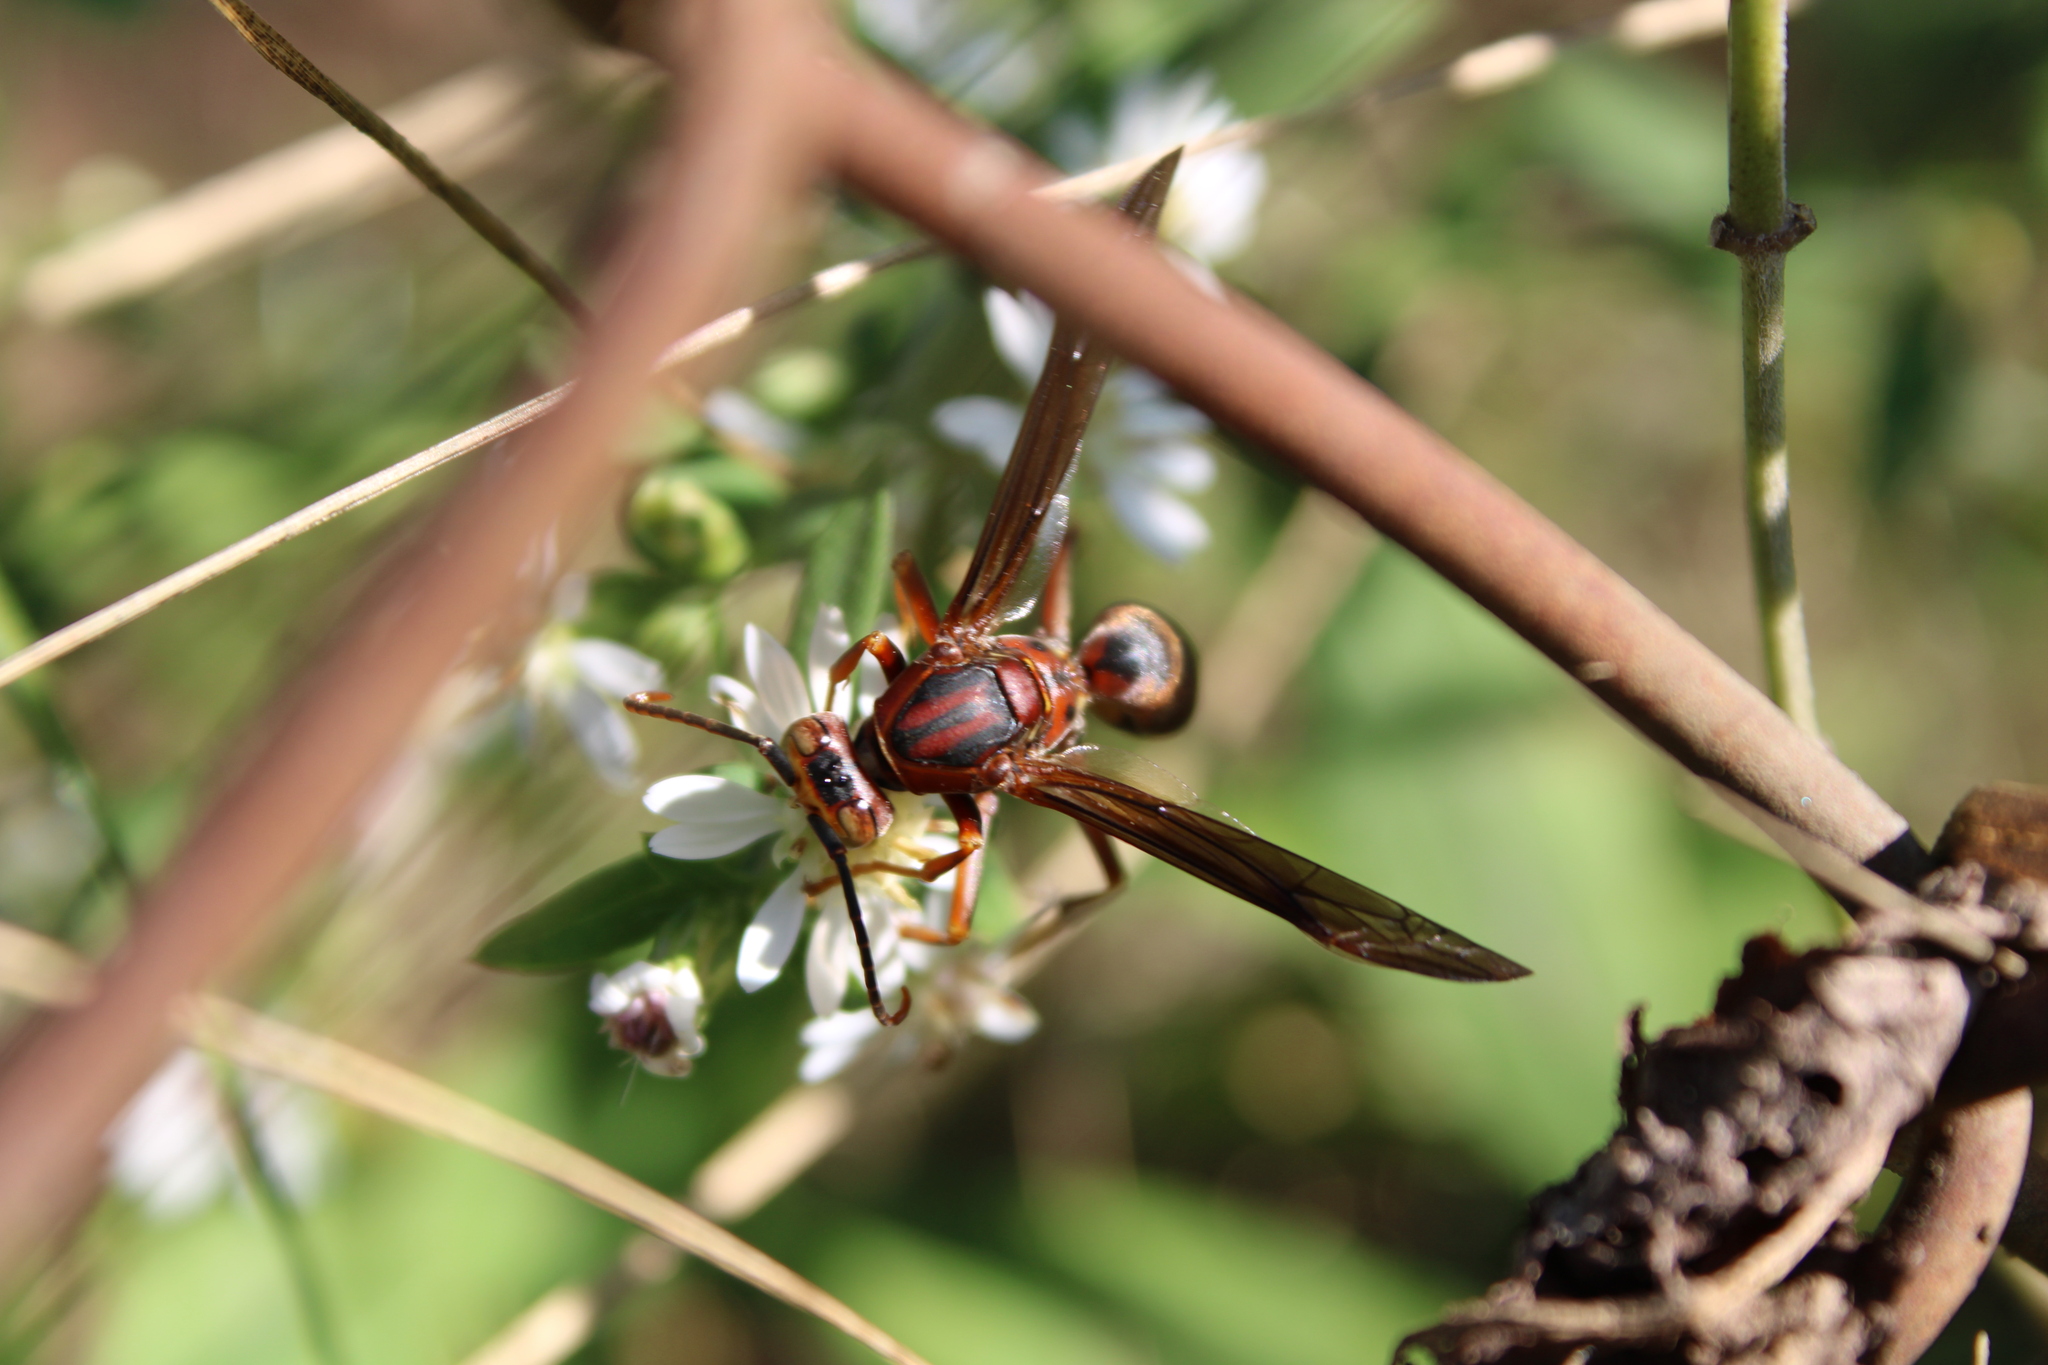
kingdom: Animalia
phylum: Arthropoda
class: Insecta
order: Hymenoptera
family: Eumenidae
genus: Polistes
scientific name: Polistes metricus
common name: Metric paper wasp
